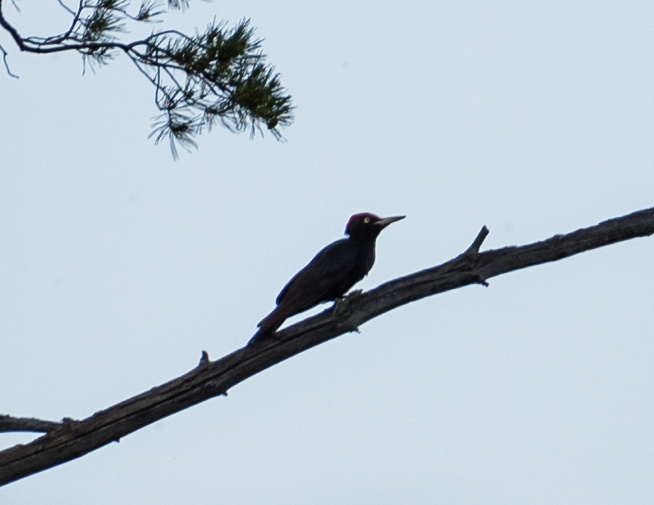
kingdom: Animalia
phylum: Chordata
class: Aves
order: Piciformes
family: Picidae
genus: Dryocopus
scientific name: Dryocopus martius
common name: Black woodpecker
